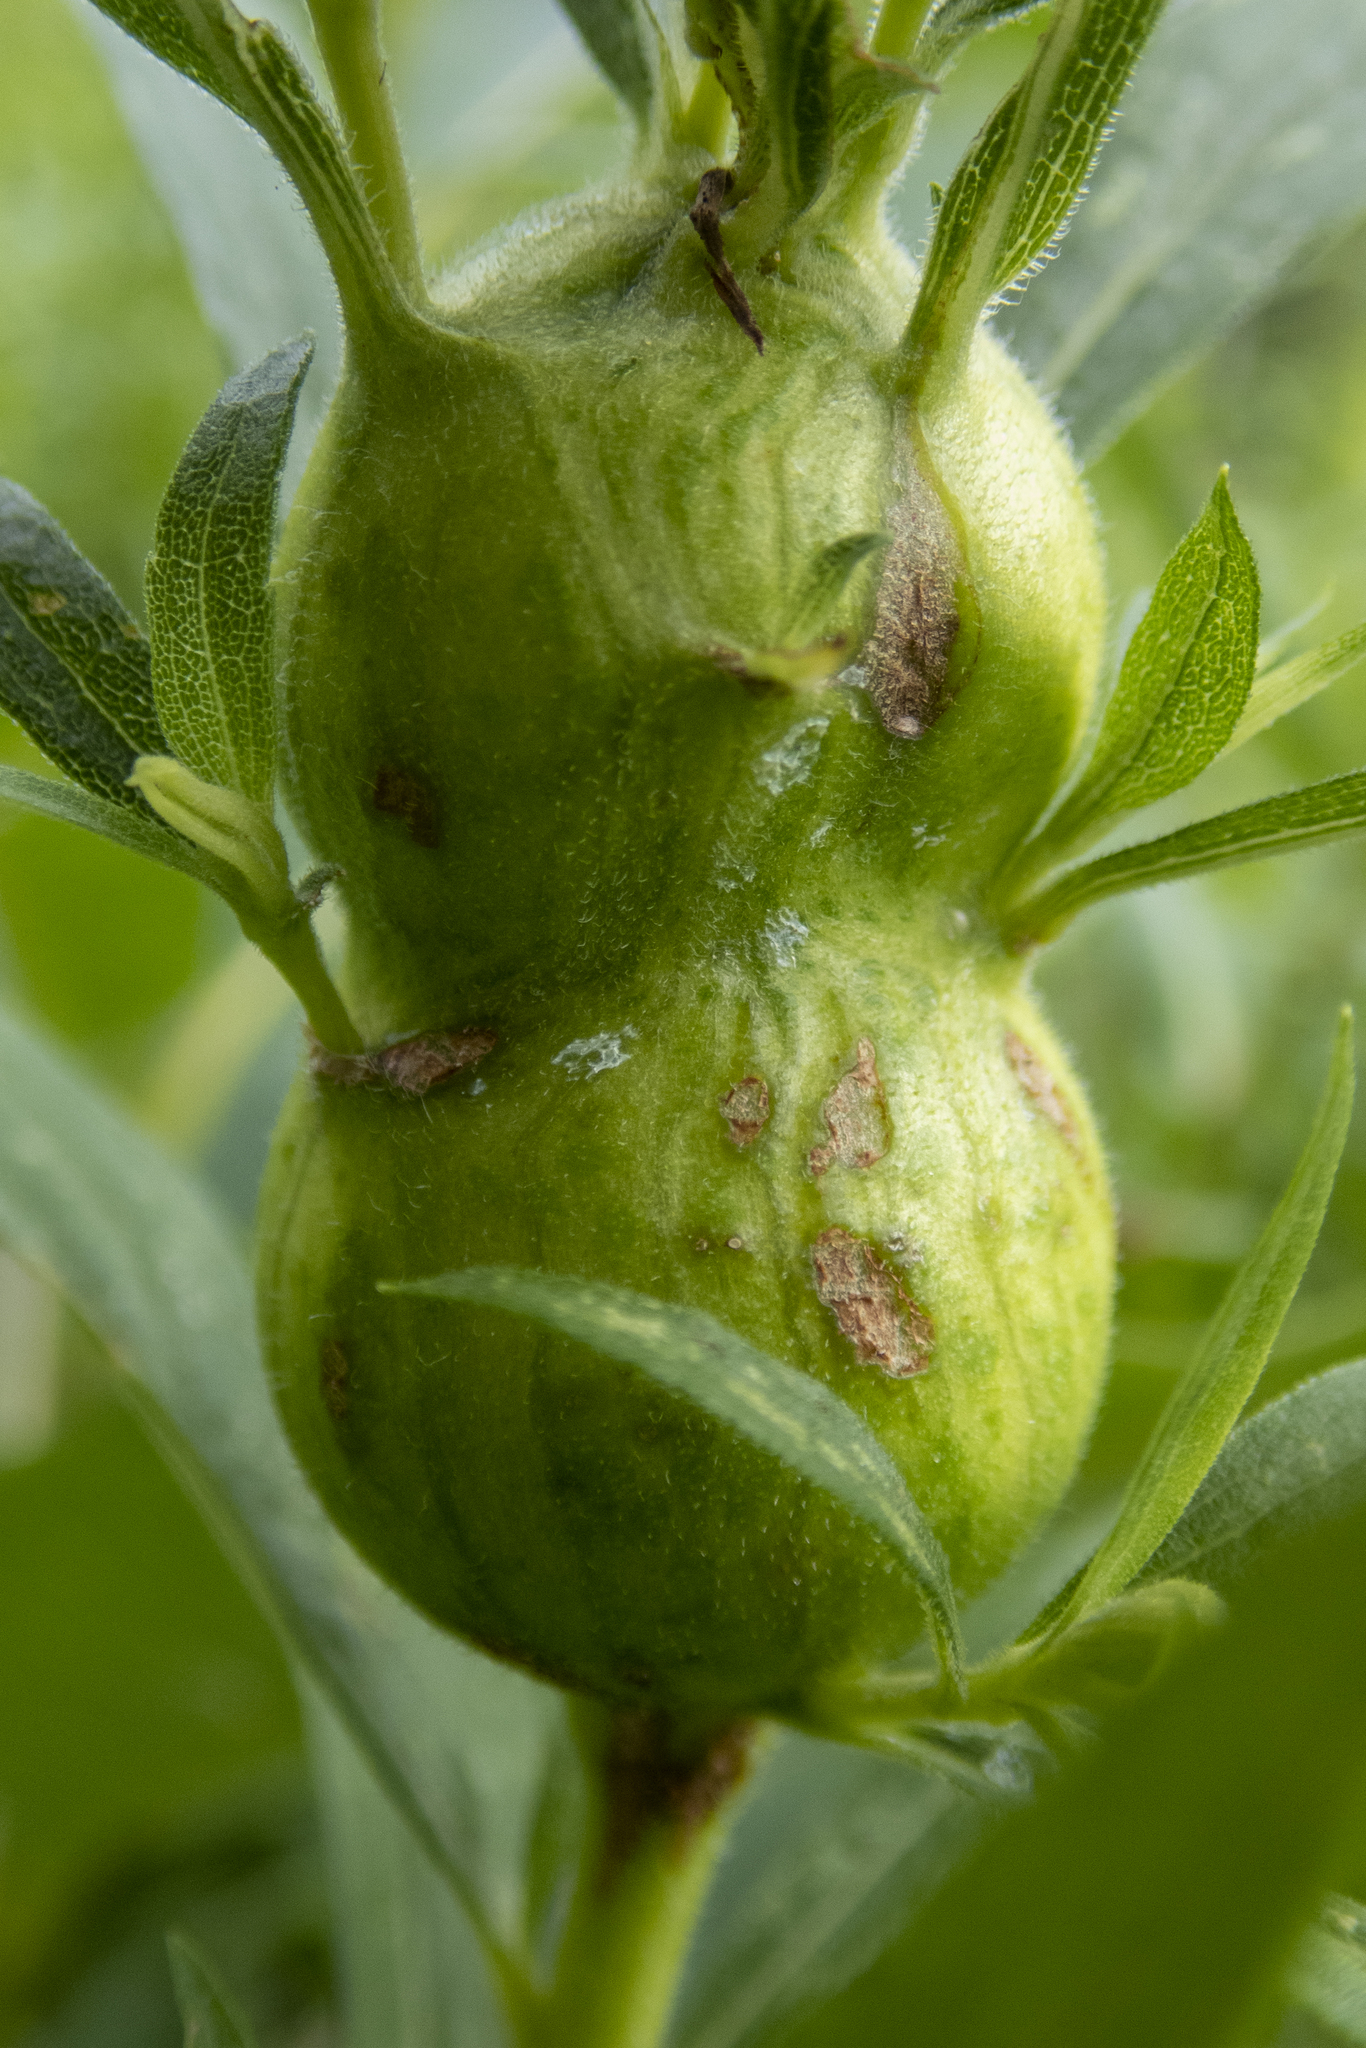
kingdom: Animalia
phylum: Arthropoda
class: Insecta
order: Diptera
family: Tephritidae
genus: Eurosta
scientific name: Eurosta solidaginis
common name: Goldenrod gall fly
